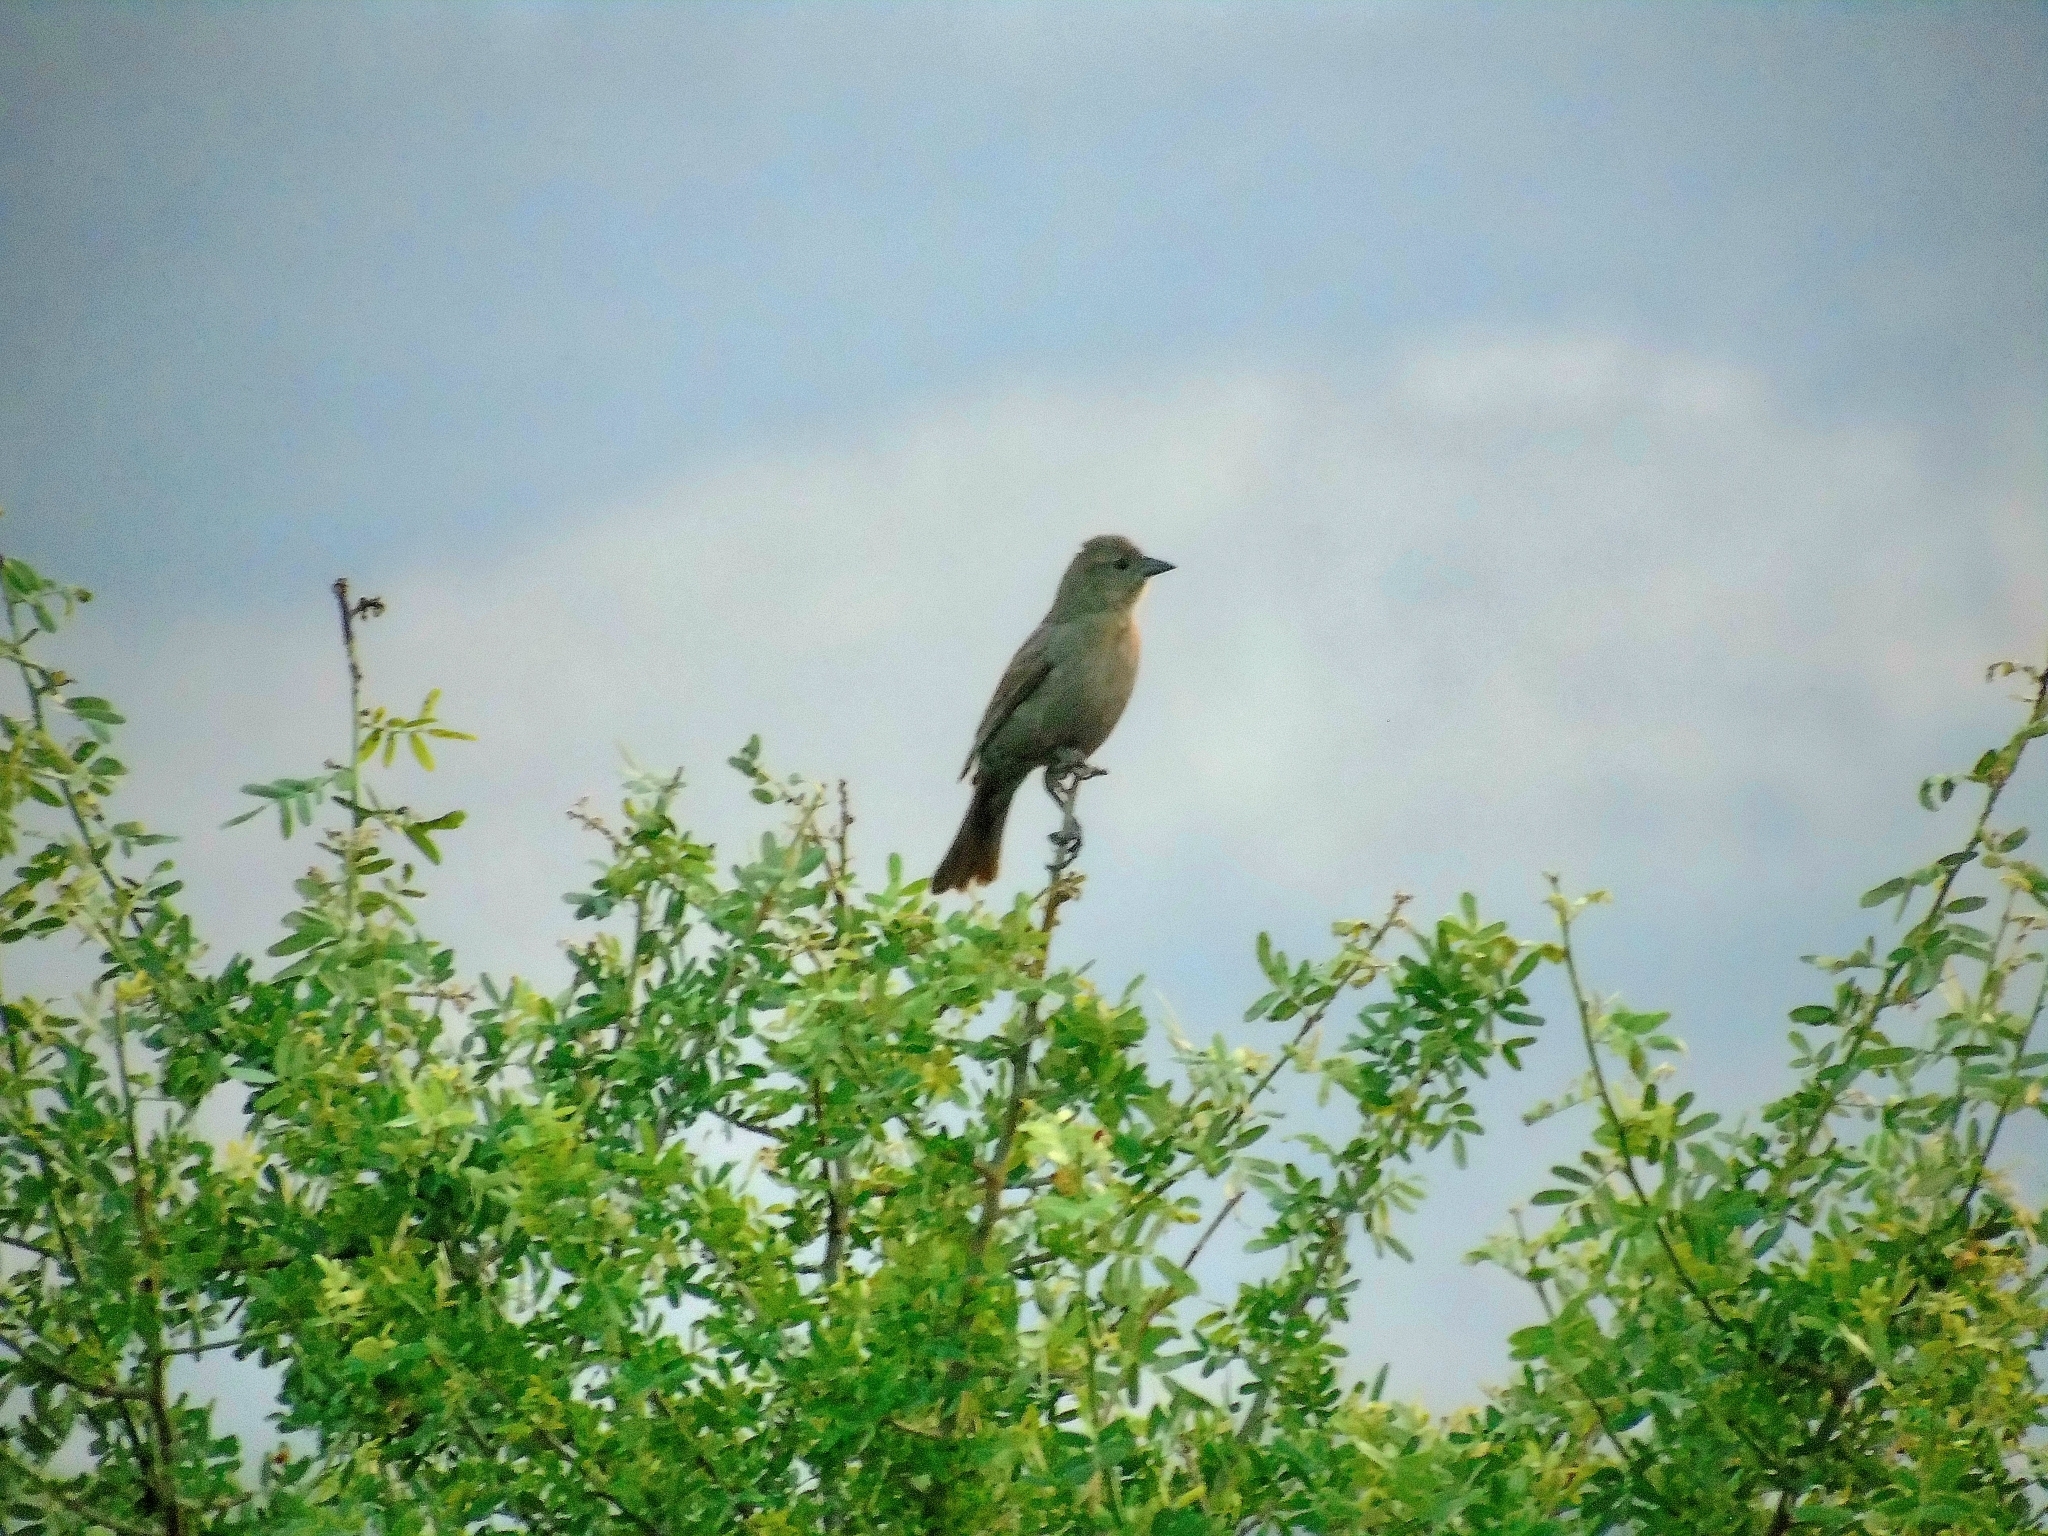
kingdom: Animalia
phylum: Chordata
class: Aves
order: Passeriformes
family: Icteridae
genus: Molothrus
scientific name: Molothrus bonariensis
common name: Shiny cowbird
